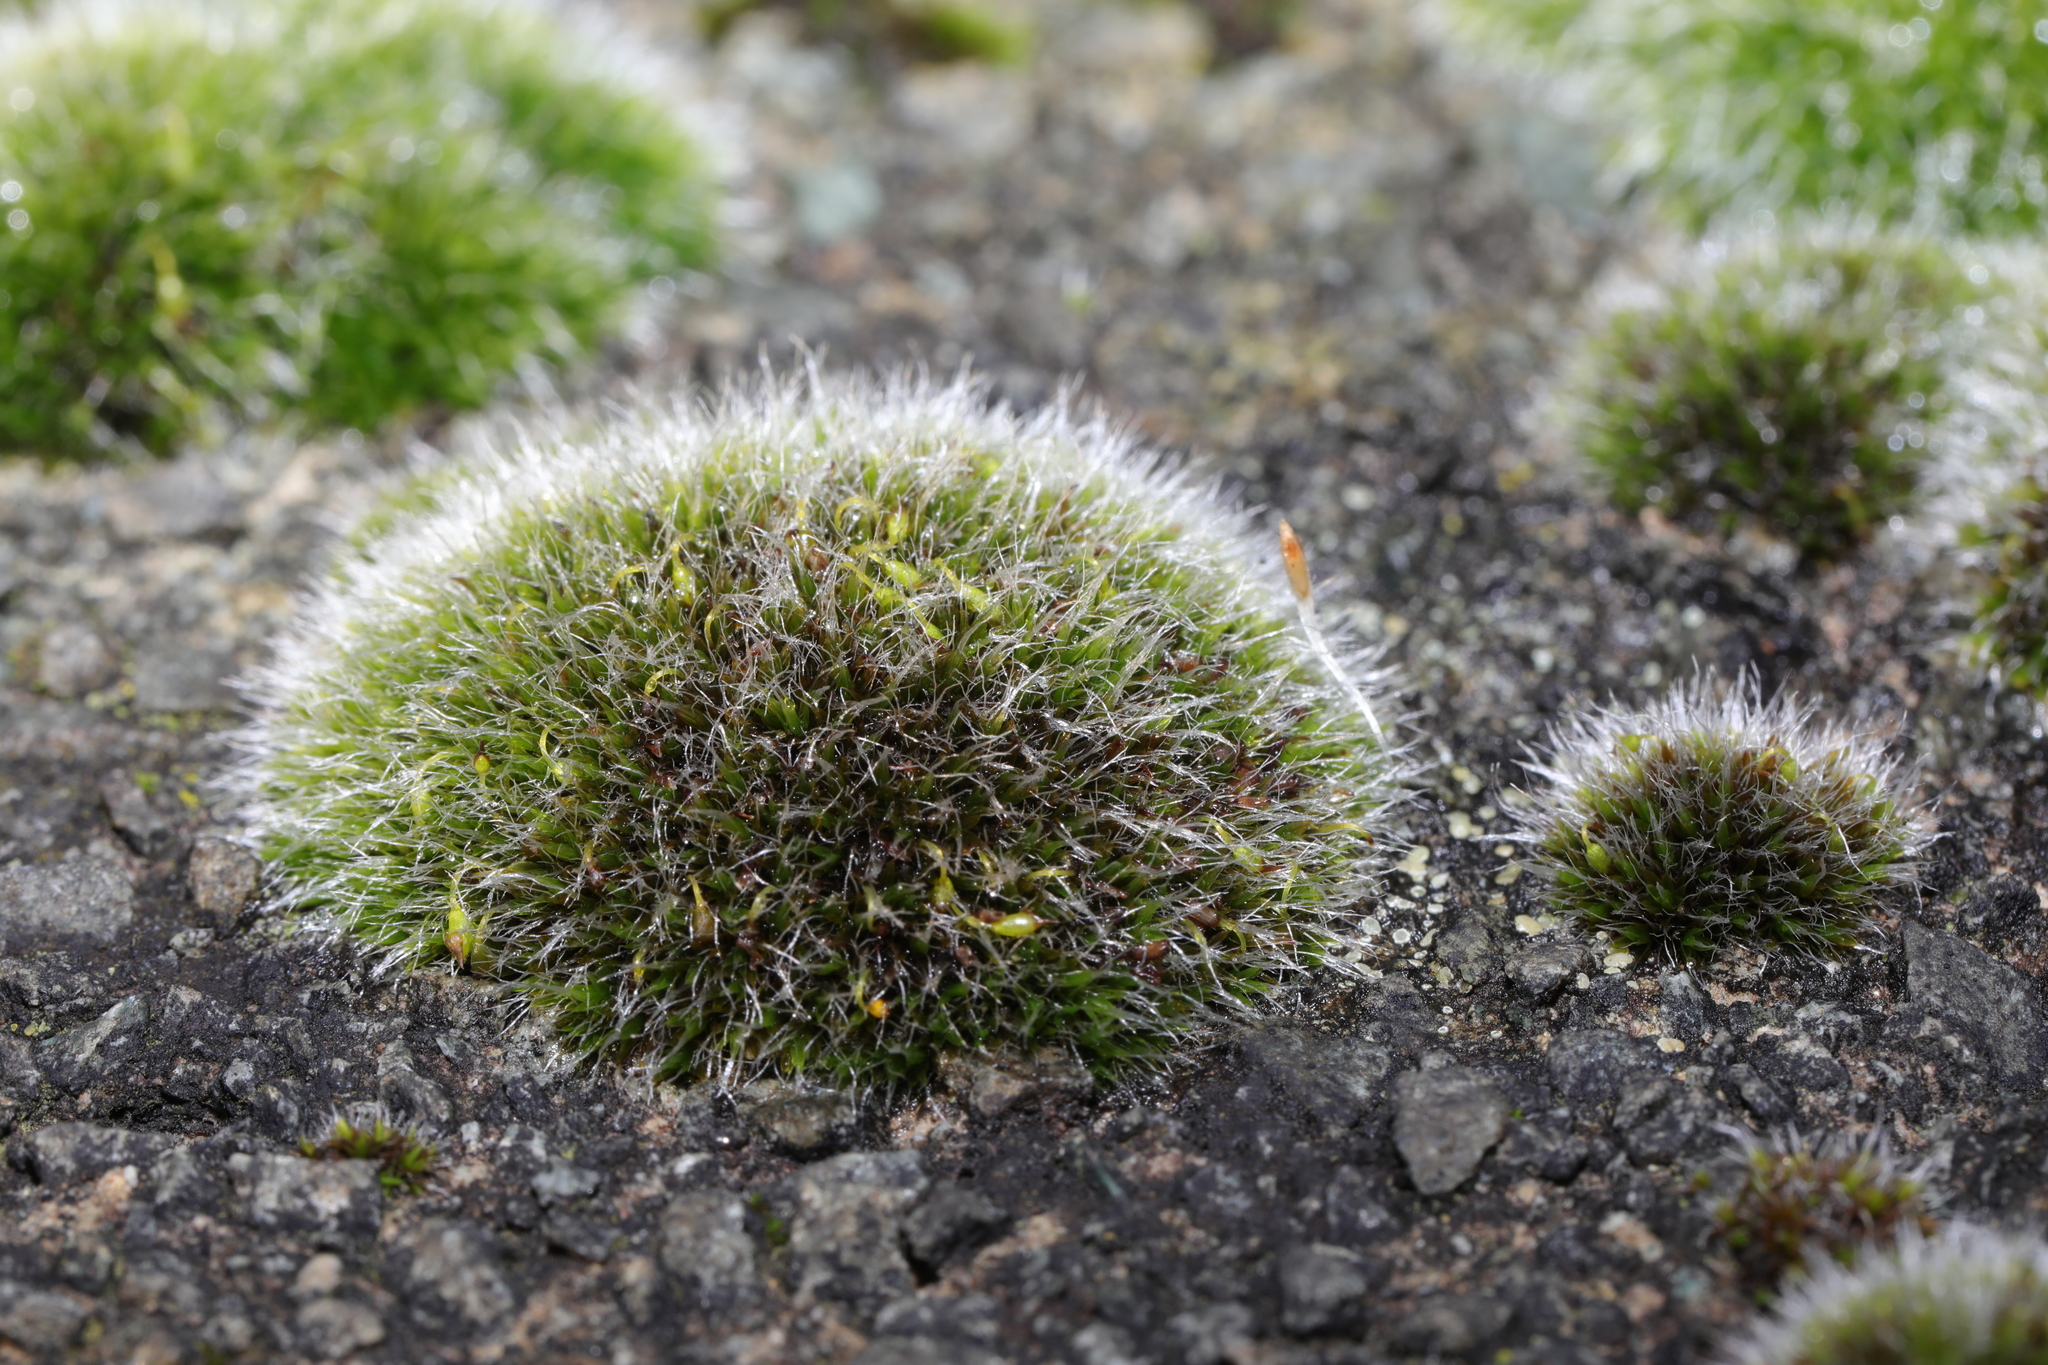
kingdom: Plantae
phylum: Bryophyta
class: Bryopsida
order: Grimmiales
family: Grimmiaceae
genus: Grimmia
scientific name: Grimmia pulvinata
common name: Grey-cushioned grimmia
